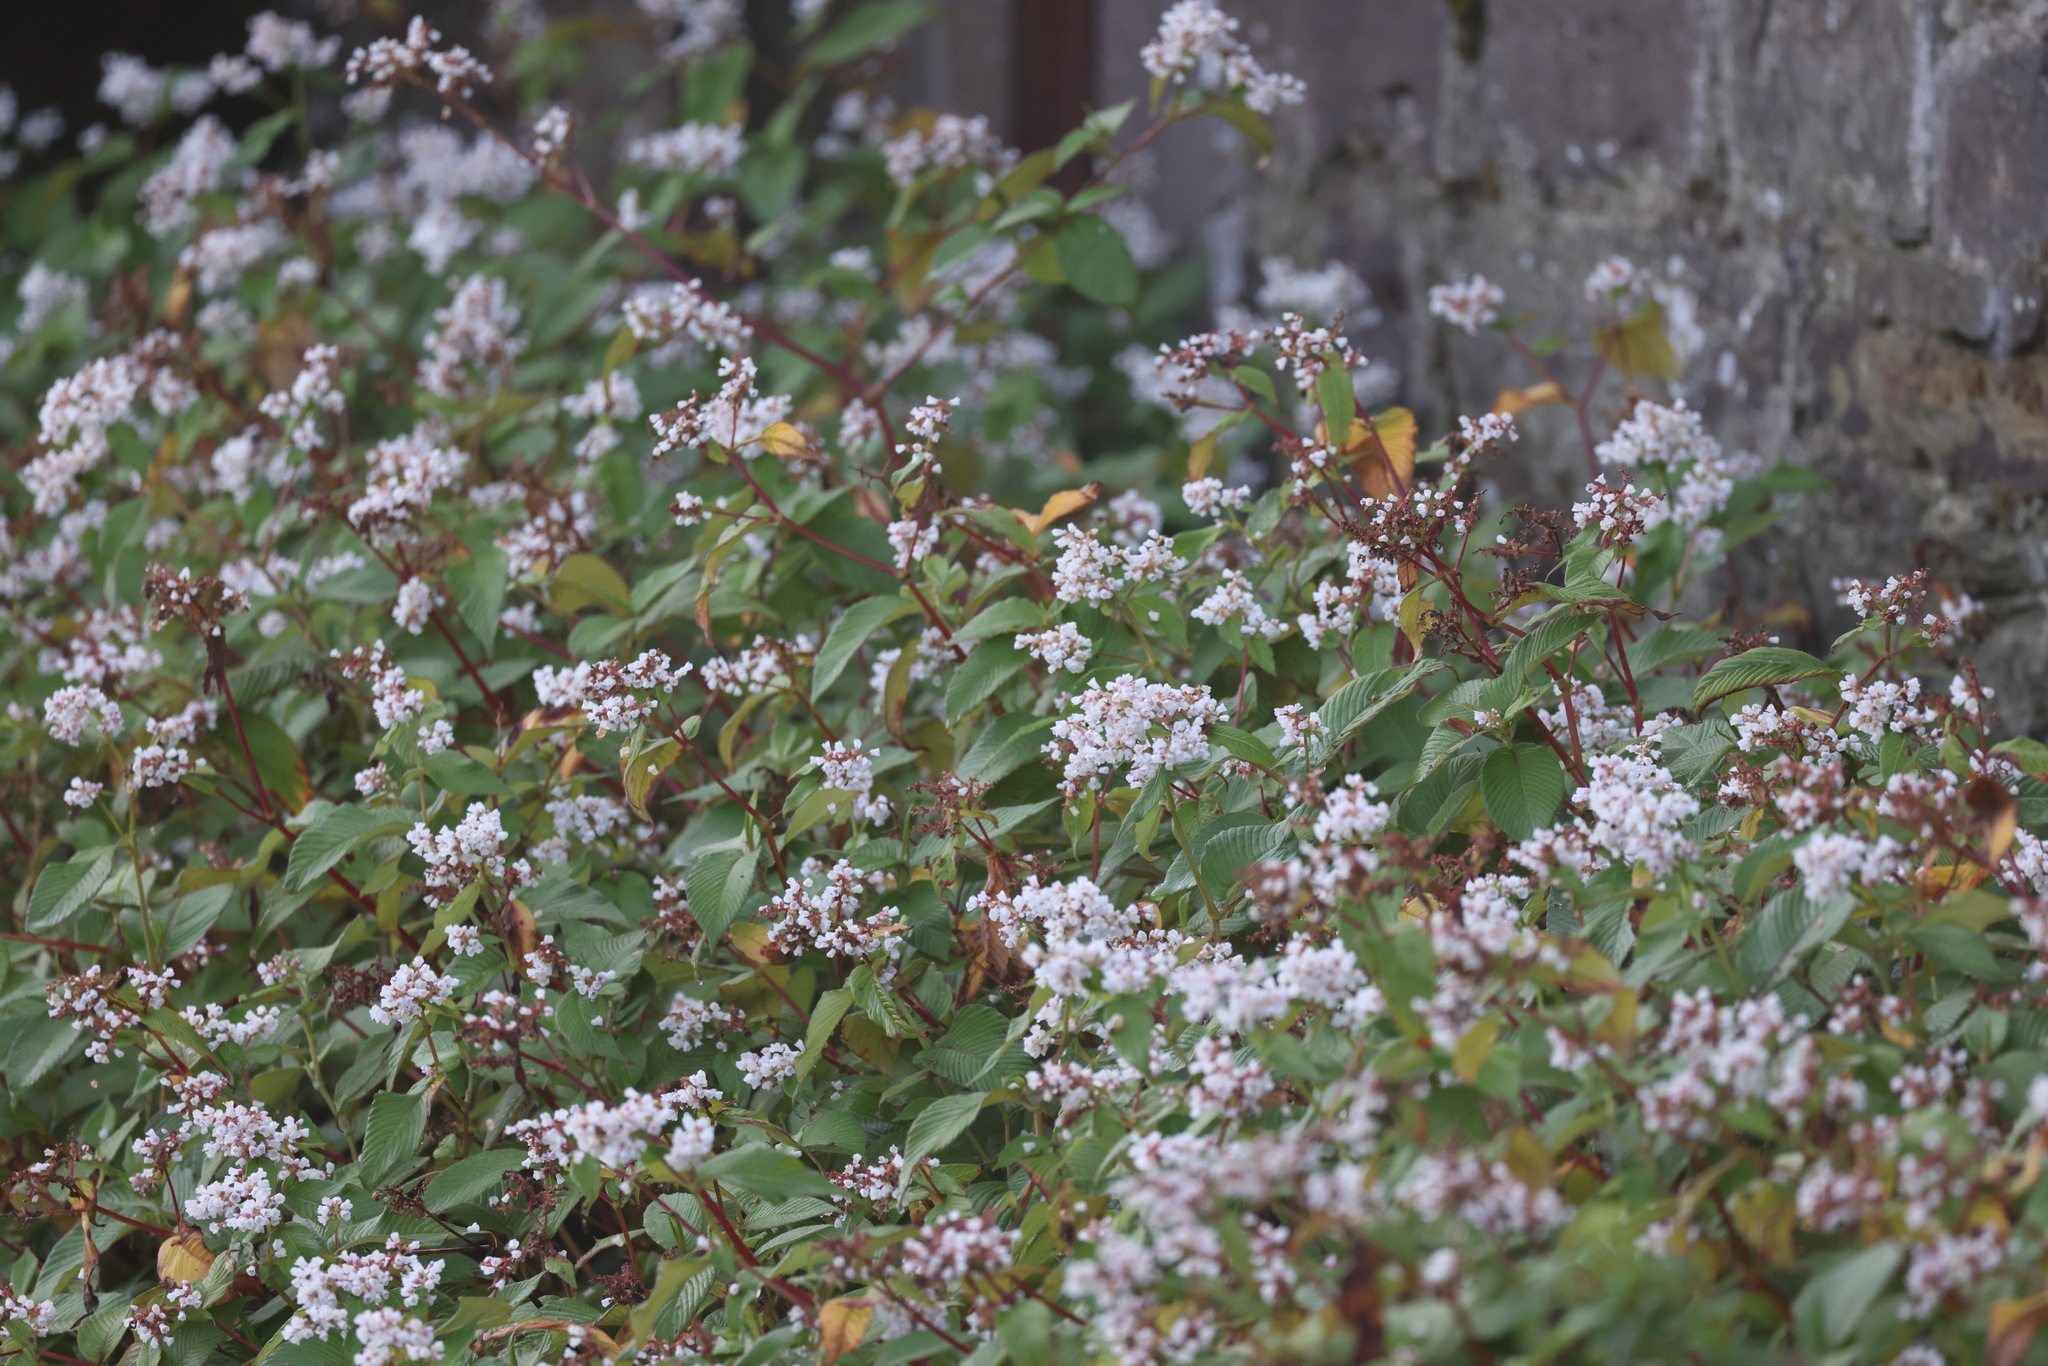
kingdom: Plantae
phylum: Tracheophyta
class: Magnoliopsida
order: Caryophyllales
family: Polygonaceae
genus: Koenigia
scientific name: Koenigia campanulata
